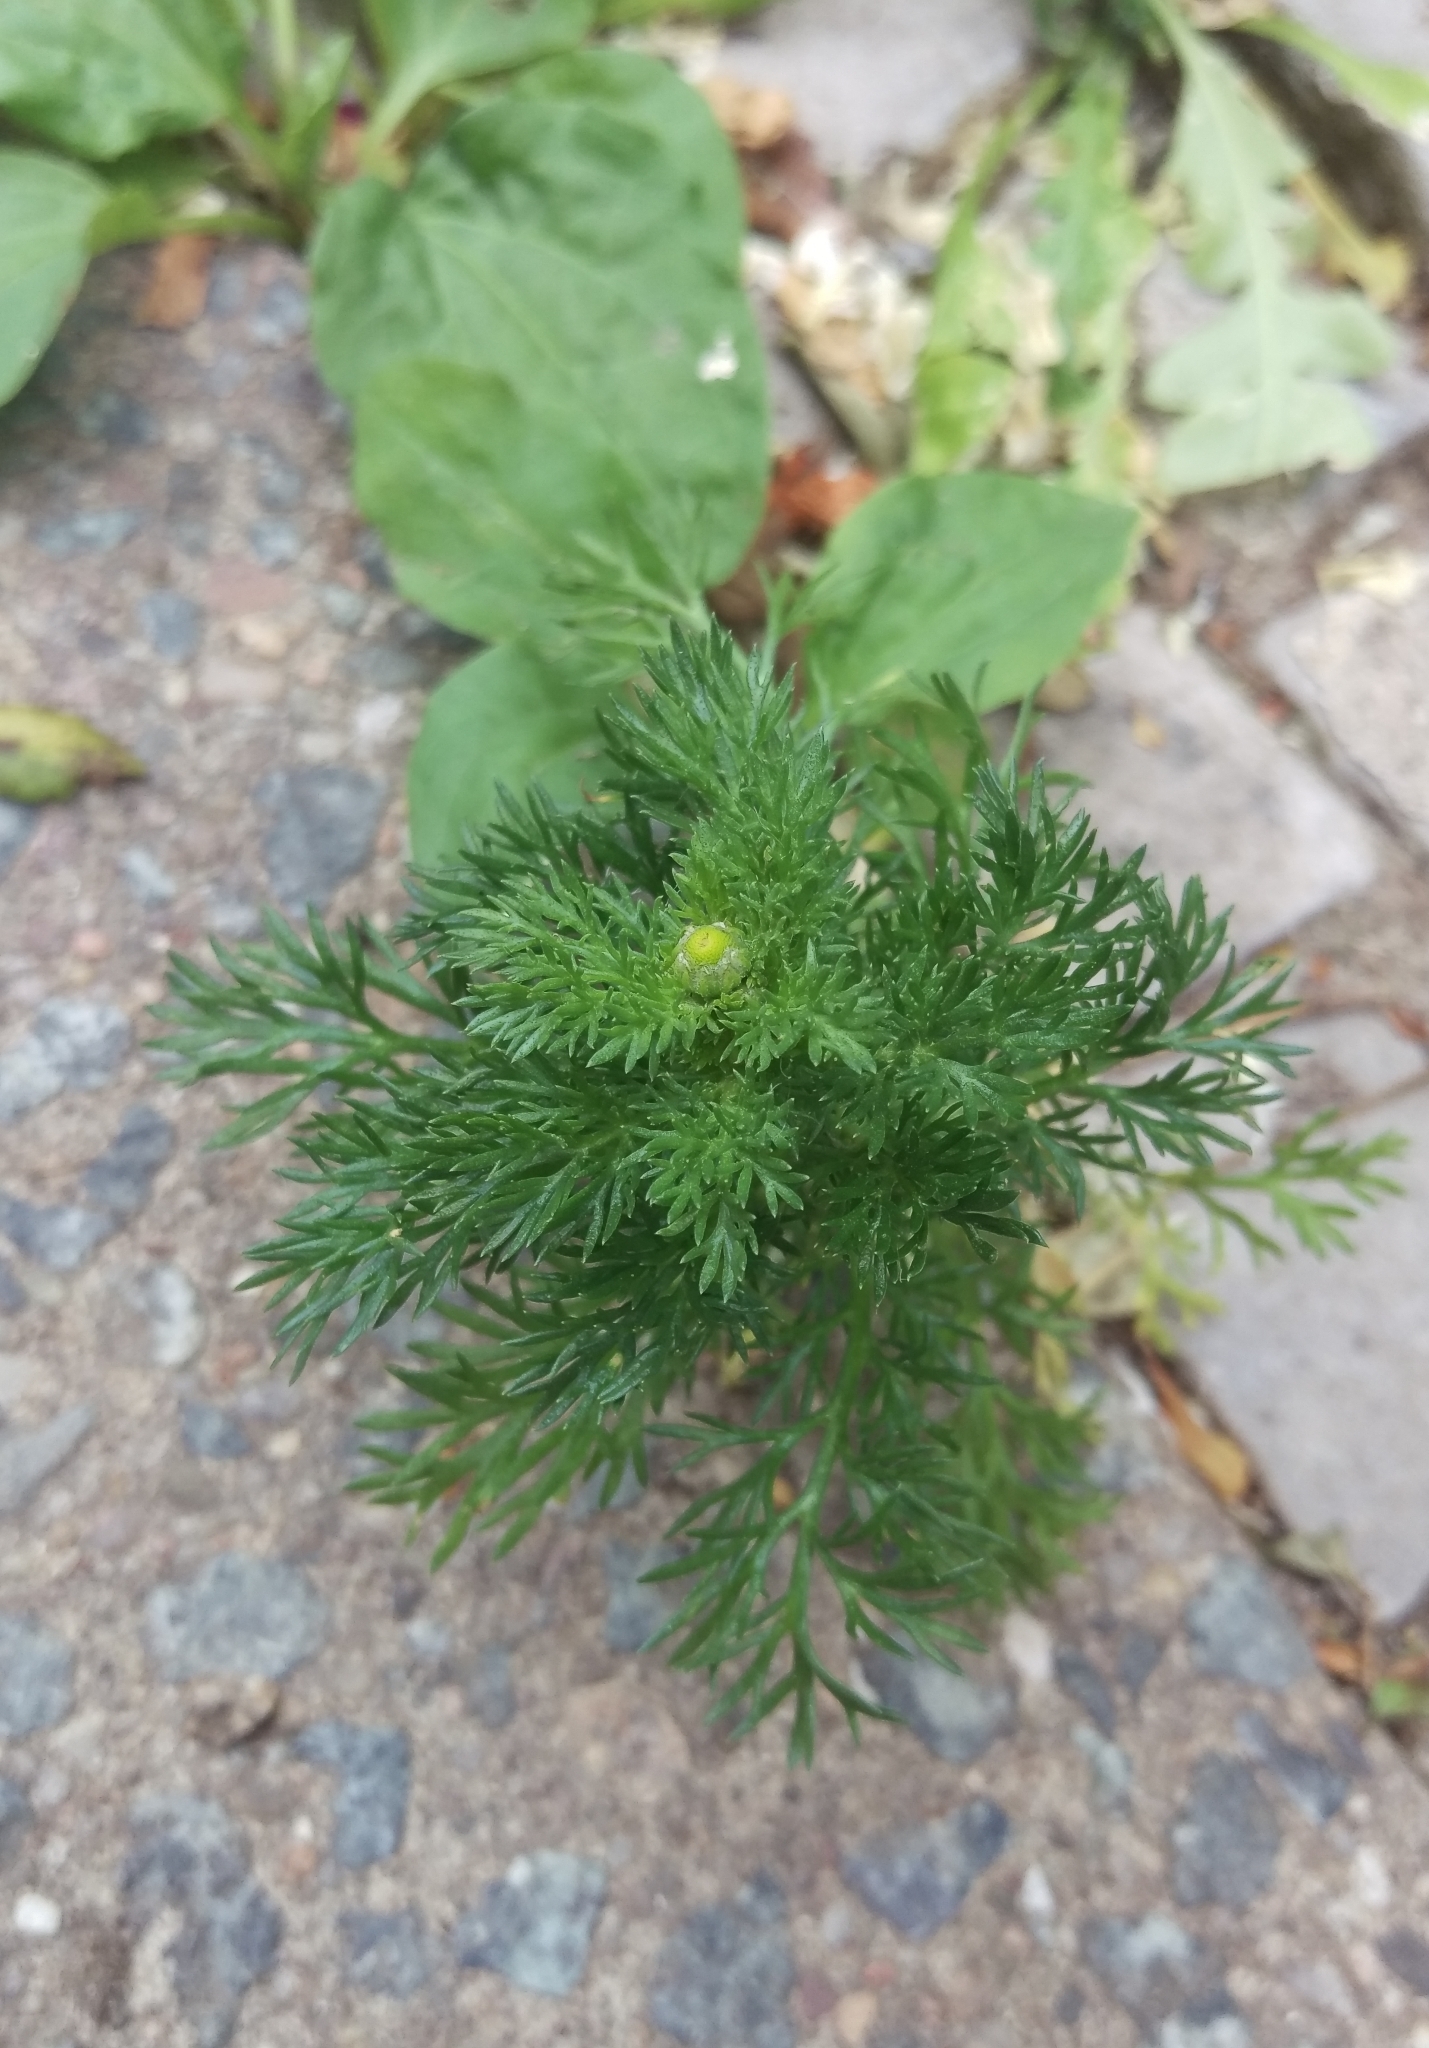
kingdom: Plantae
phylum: Tracheophyta
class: Magnoliopsida
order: Asterales
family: Asteraceae
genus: Matricaria
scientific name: Matricaria discoidea
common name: Disc mayweed
